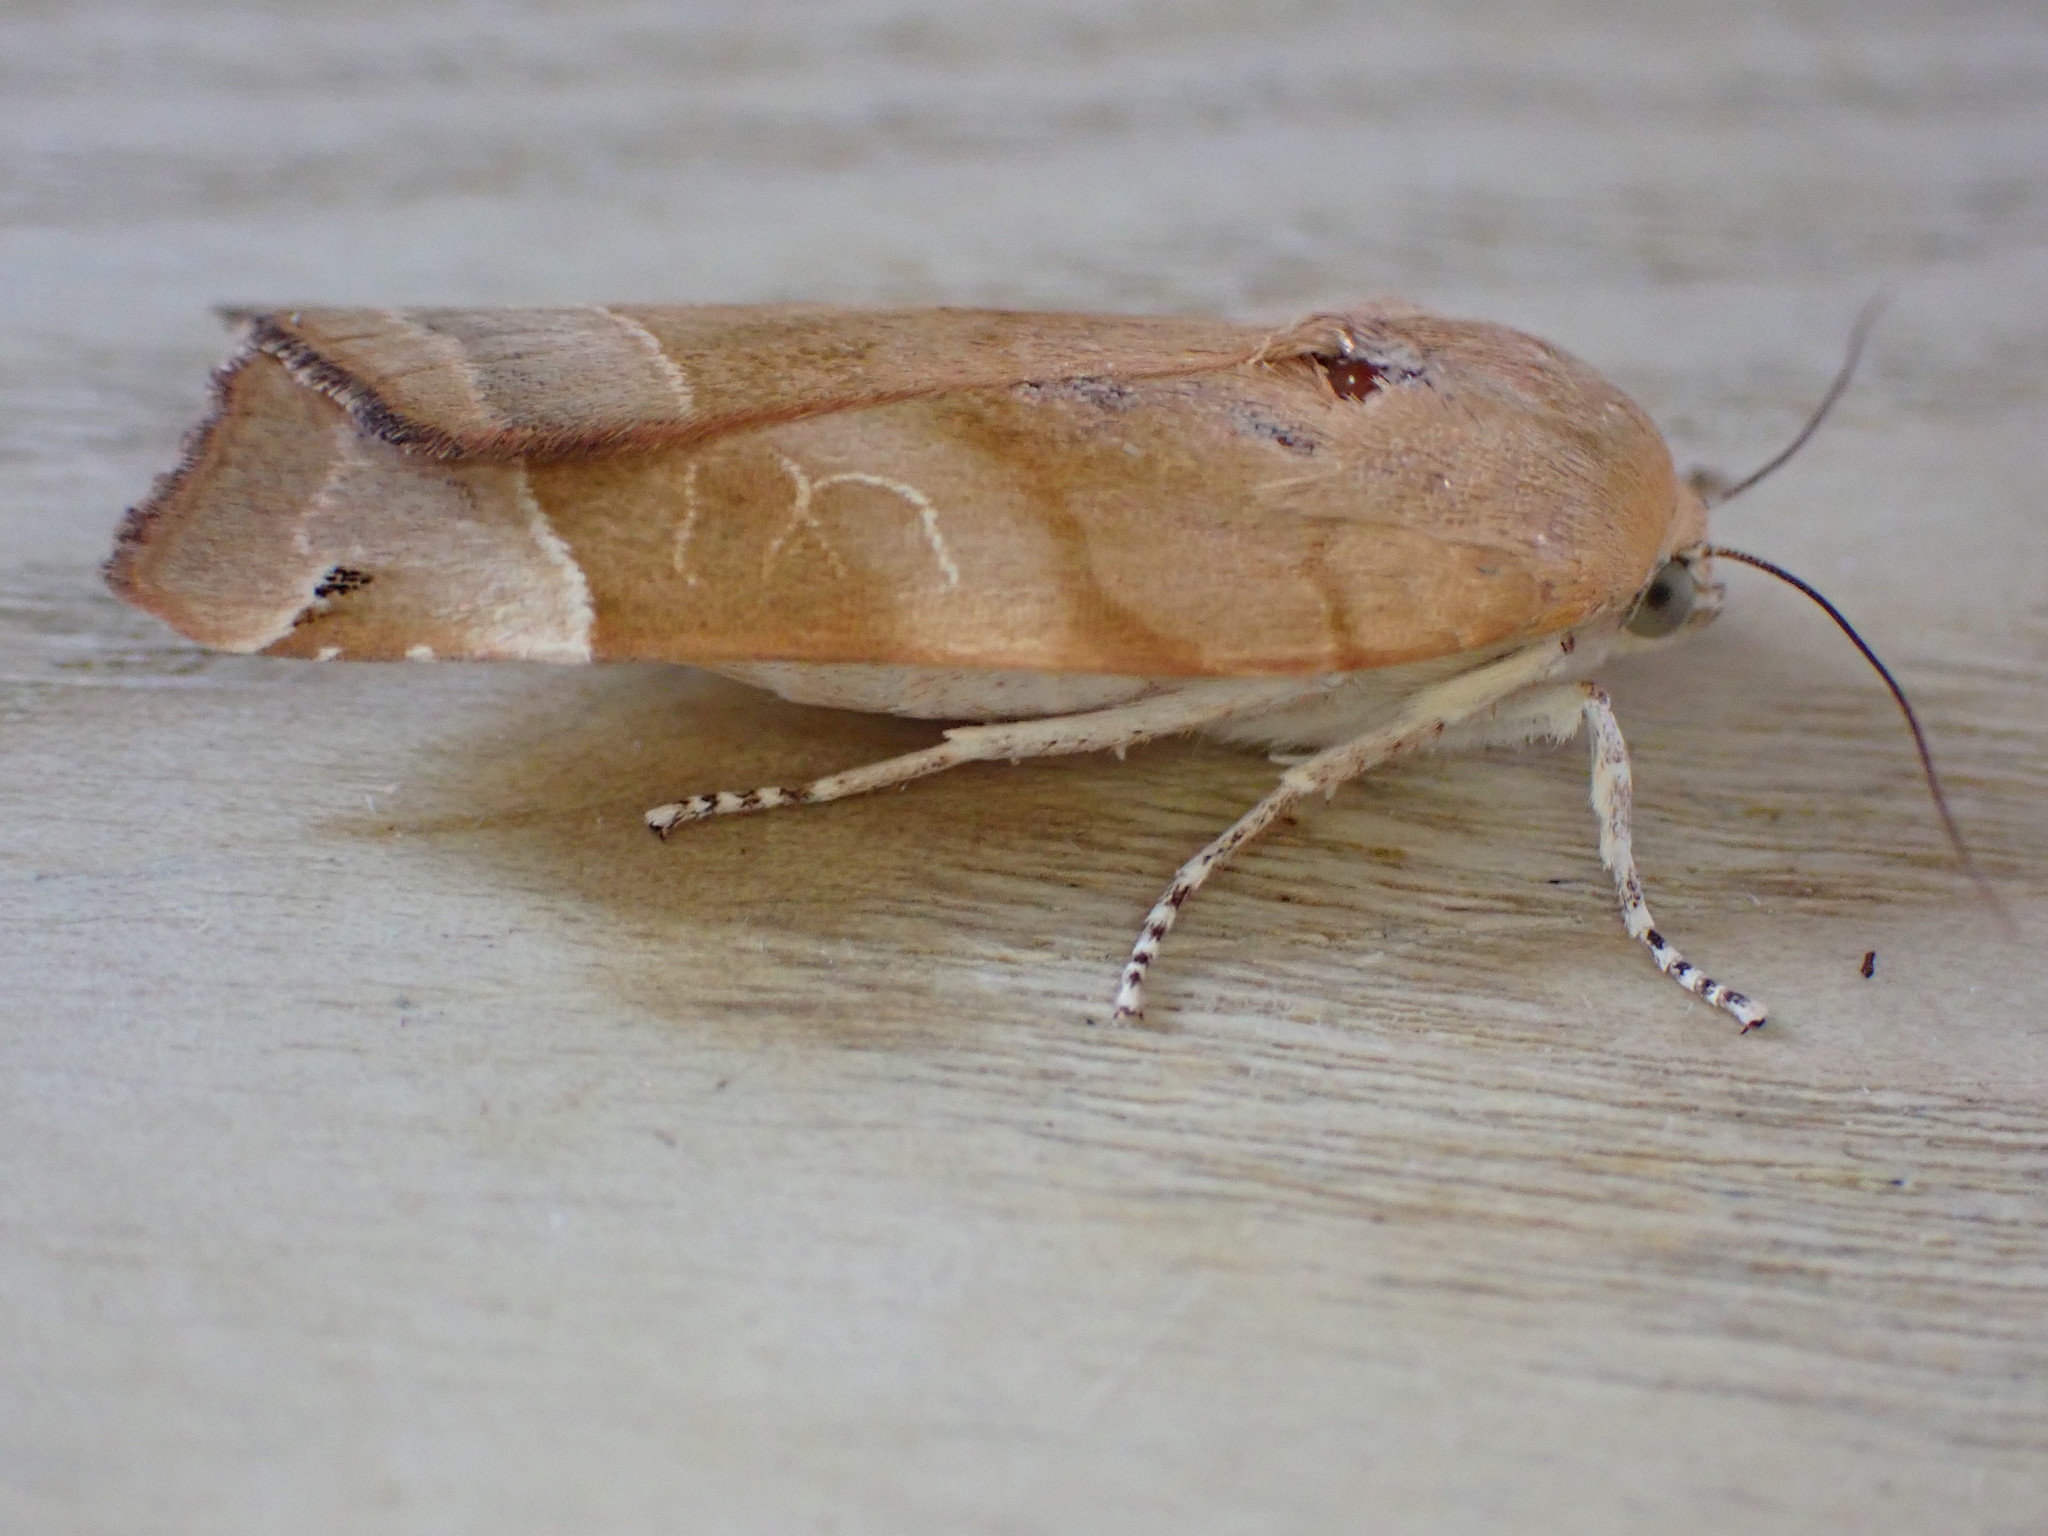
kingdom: Animalia
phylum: Arthropoda
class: Insecta
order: Lepidoptera
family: Noctuidae
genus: Noctua
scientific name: Noctua fimbriata
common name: Broad-bordered yellow underwing
